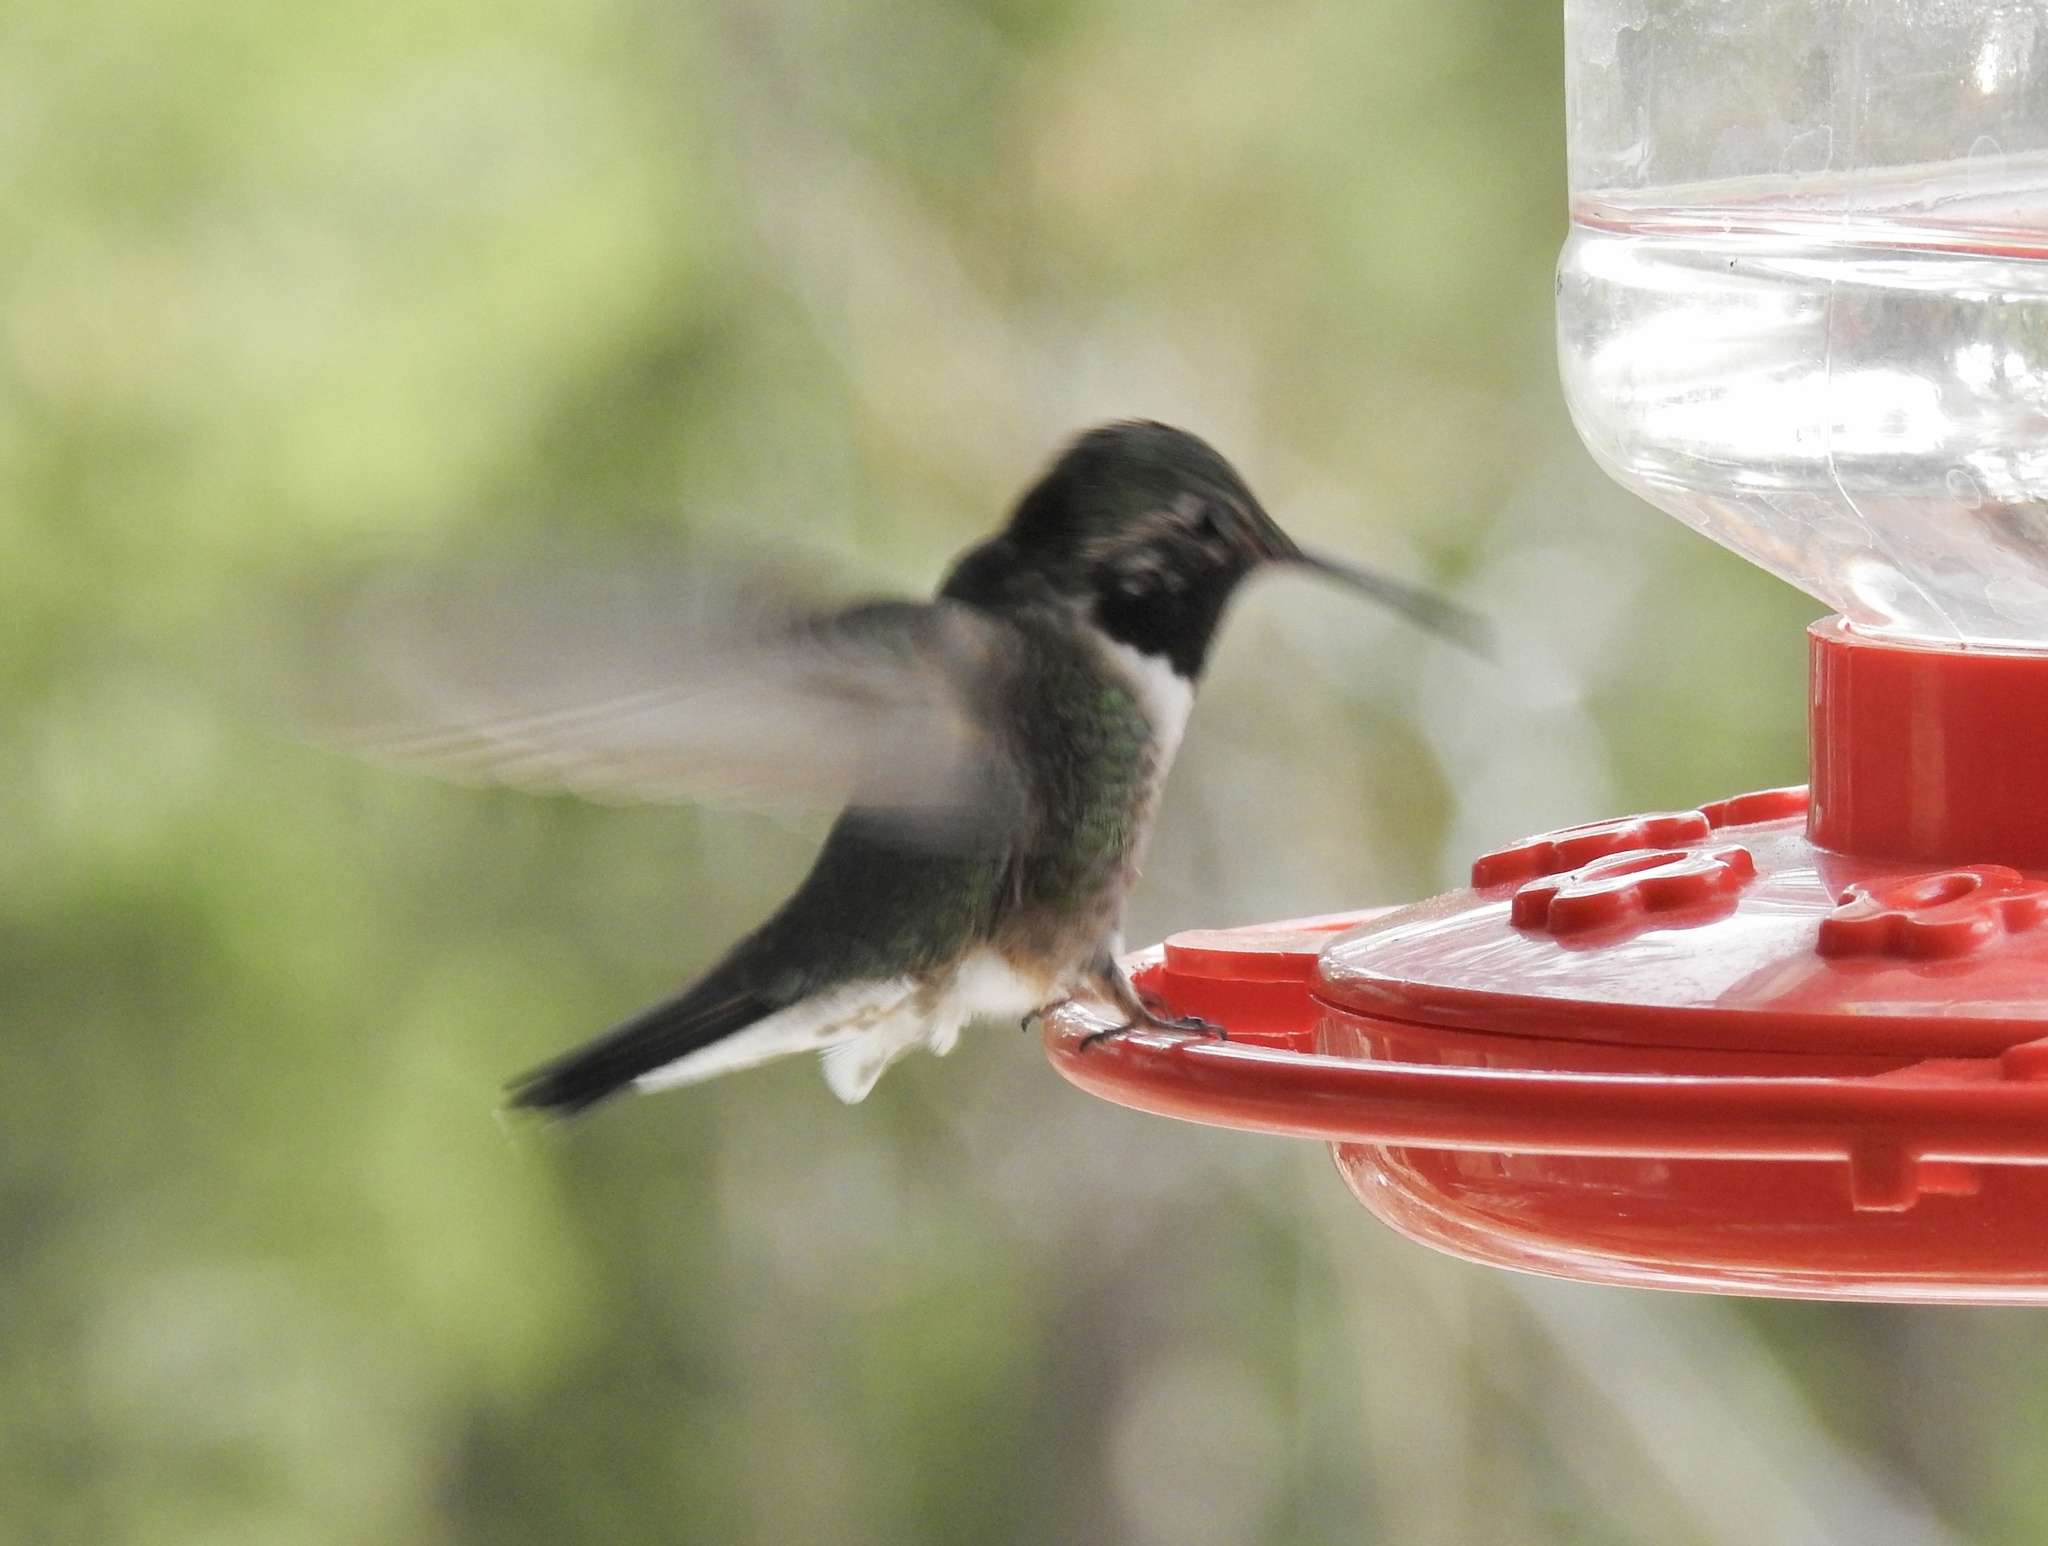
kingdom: Animalia
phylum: Chordata
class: Aves
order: Apodiformes
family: Trochilidae
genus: Selasphorus
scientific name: Selasphorus platycercus
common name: Broad-tailed hummingbird
